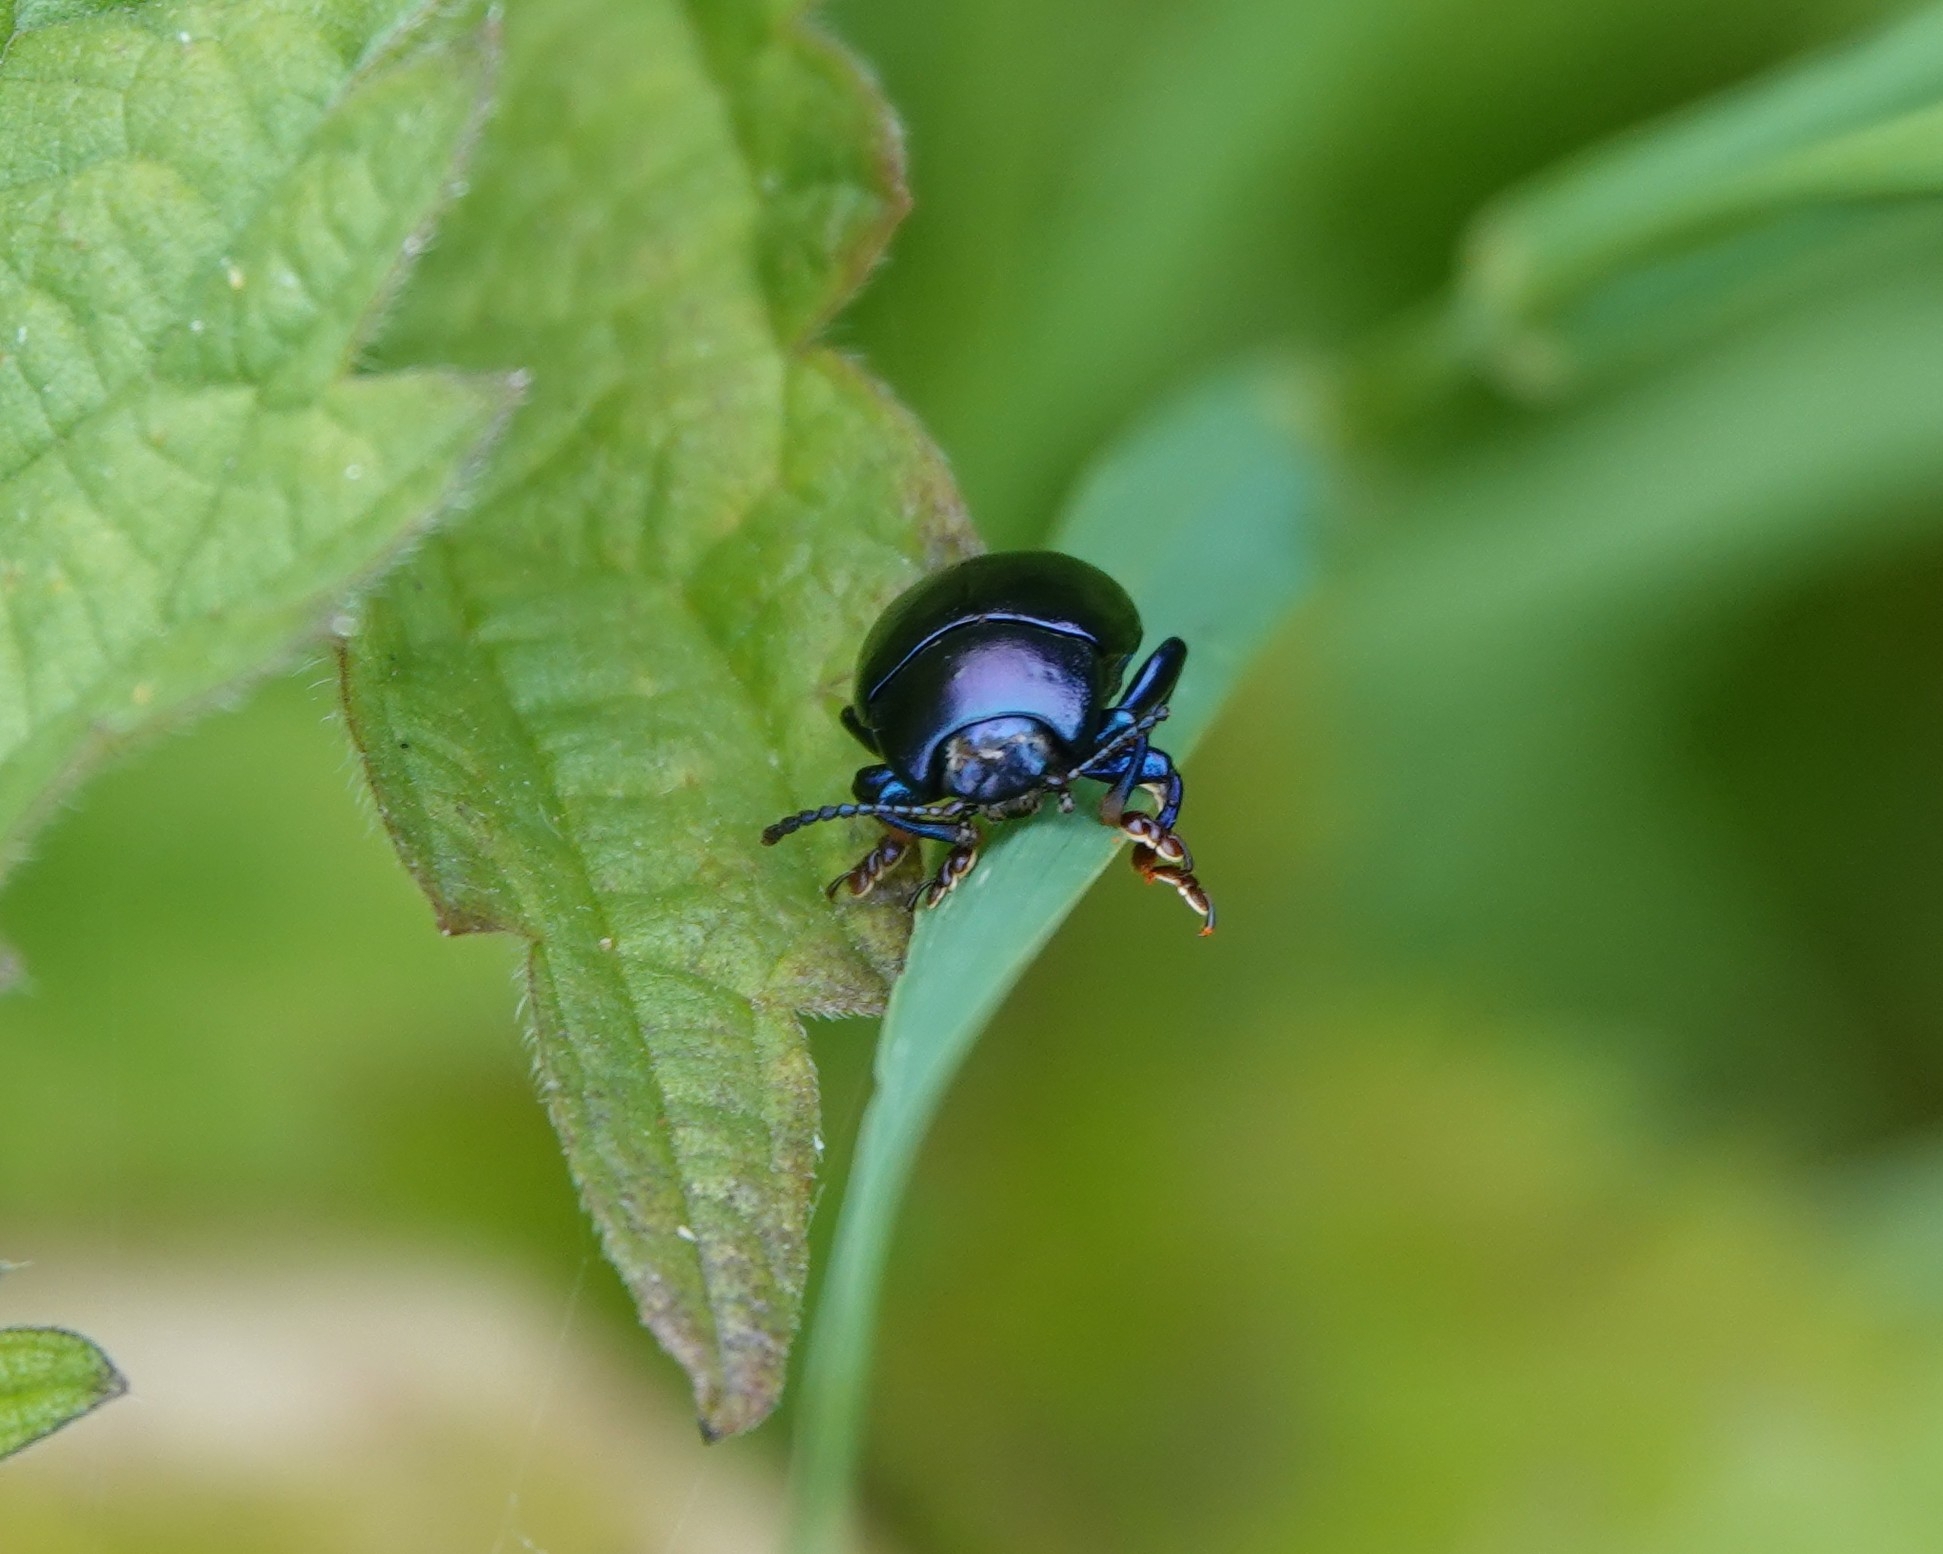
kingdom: Animalia
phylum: Arthropoda
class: Insecta
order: Coleoptera
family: Chrysomelidae
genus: Chrysolina
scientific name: Chrysolina sturmi
